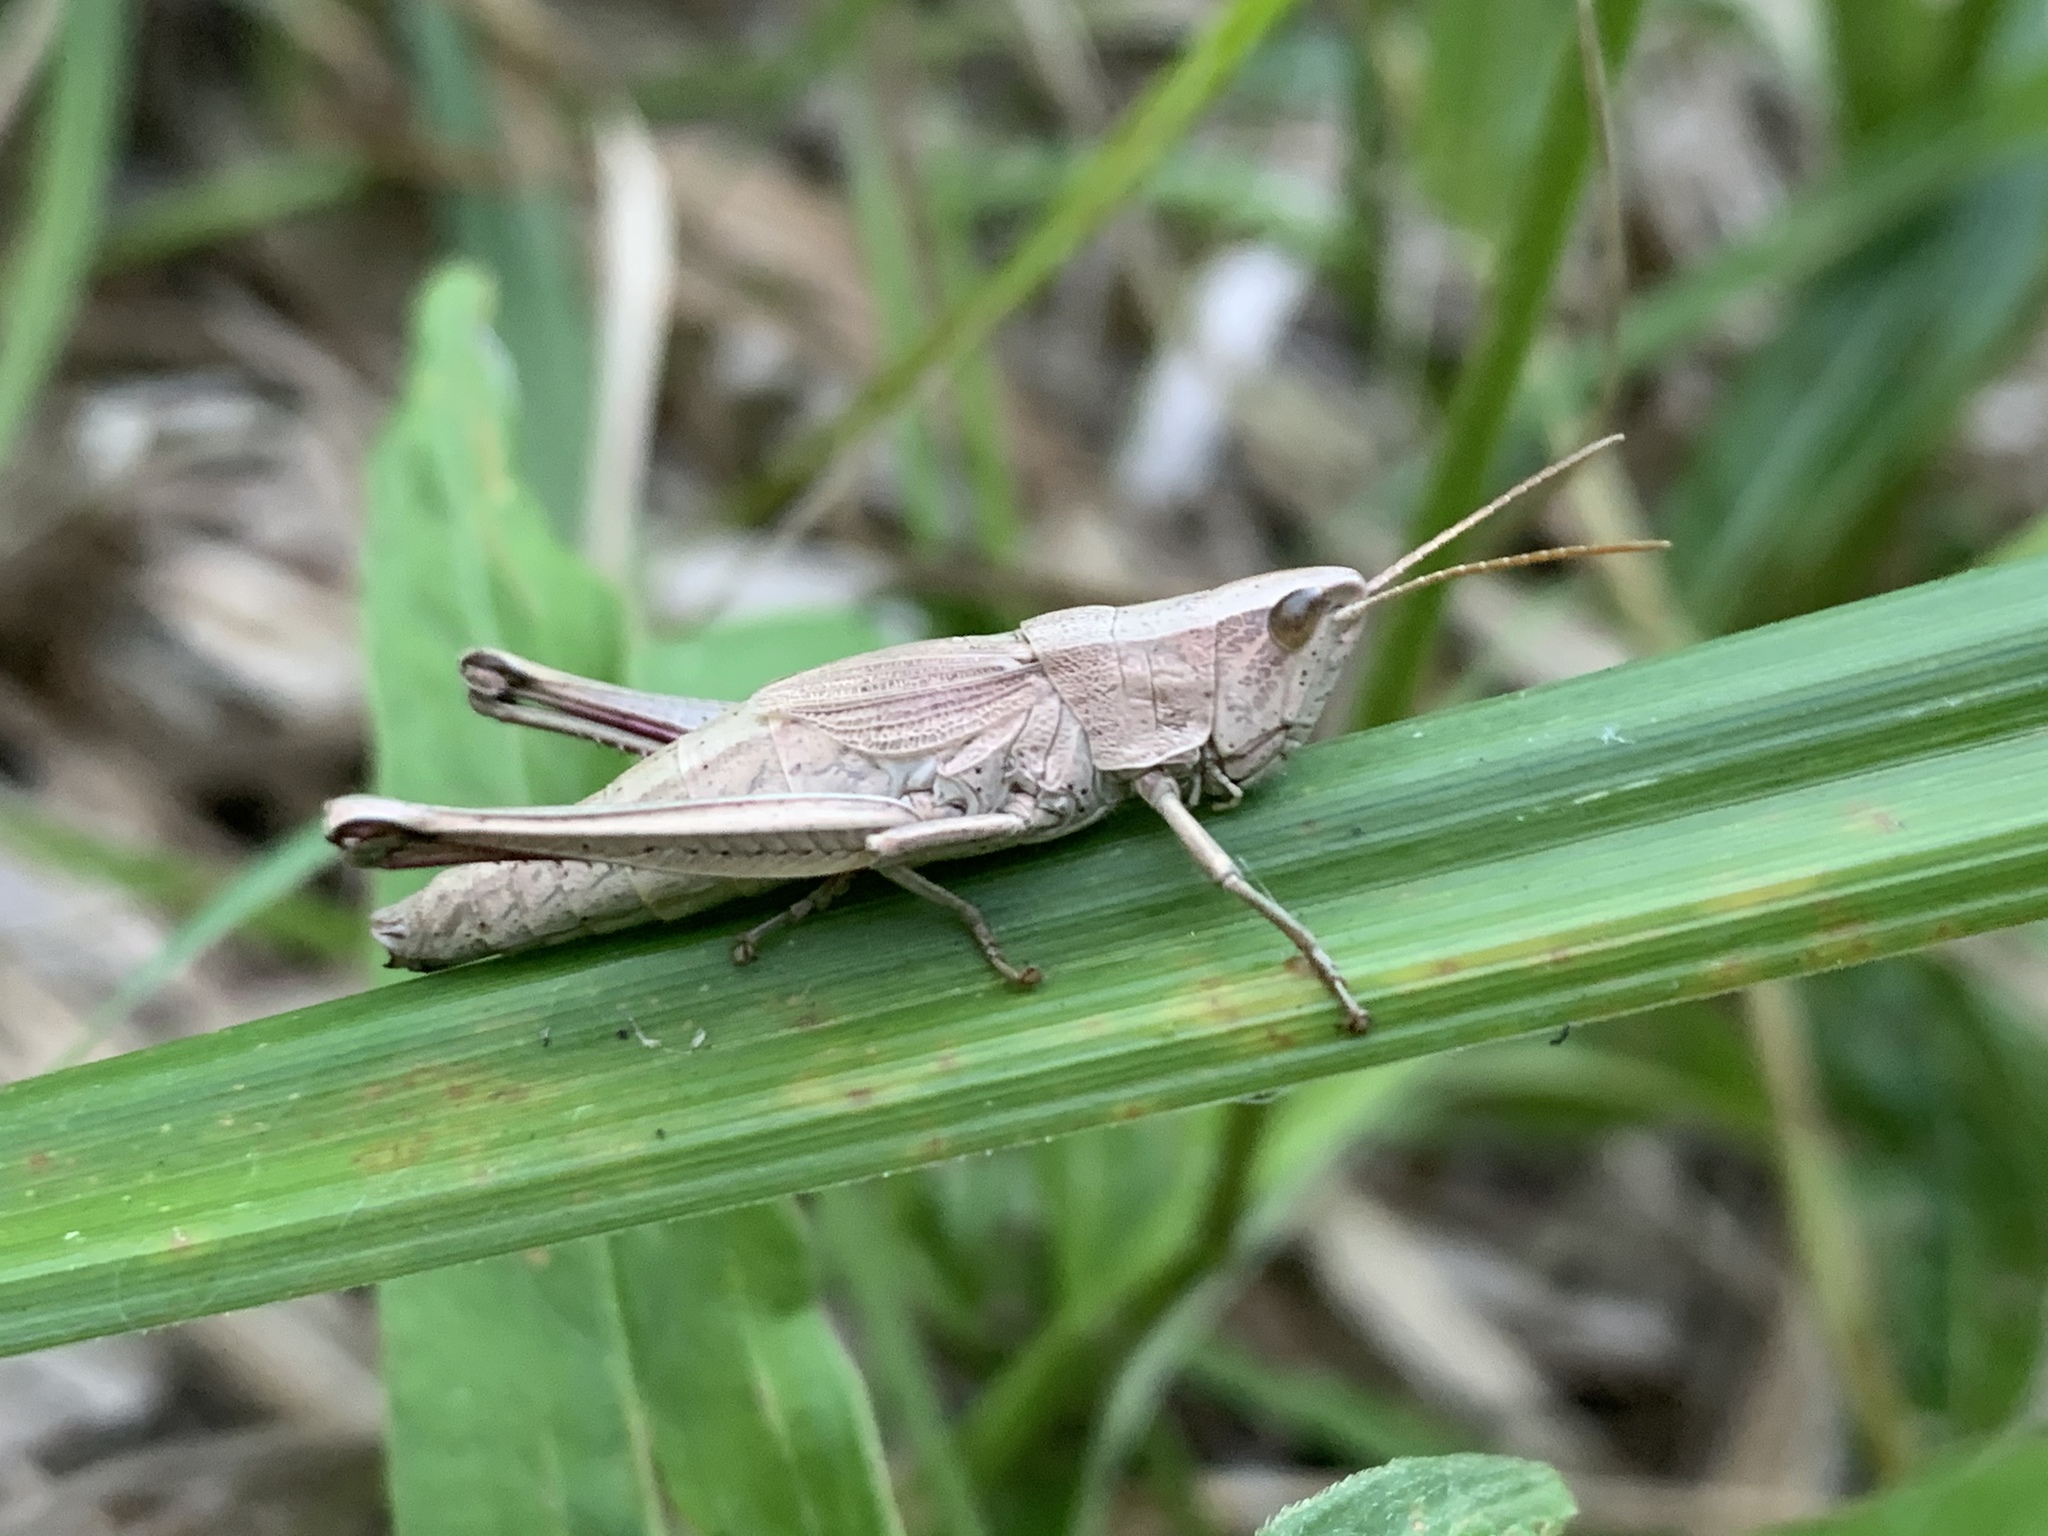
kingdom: Animalia
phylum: Arthropoda
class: Insecta
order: Orthoptera
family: Acrididae
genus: Chrysochraon
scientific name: Chrysochraon dispar
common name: Large gold grasshopper
